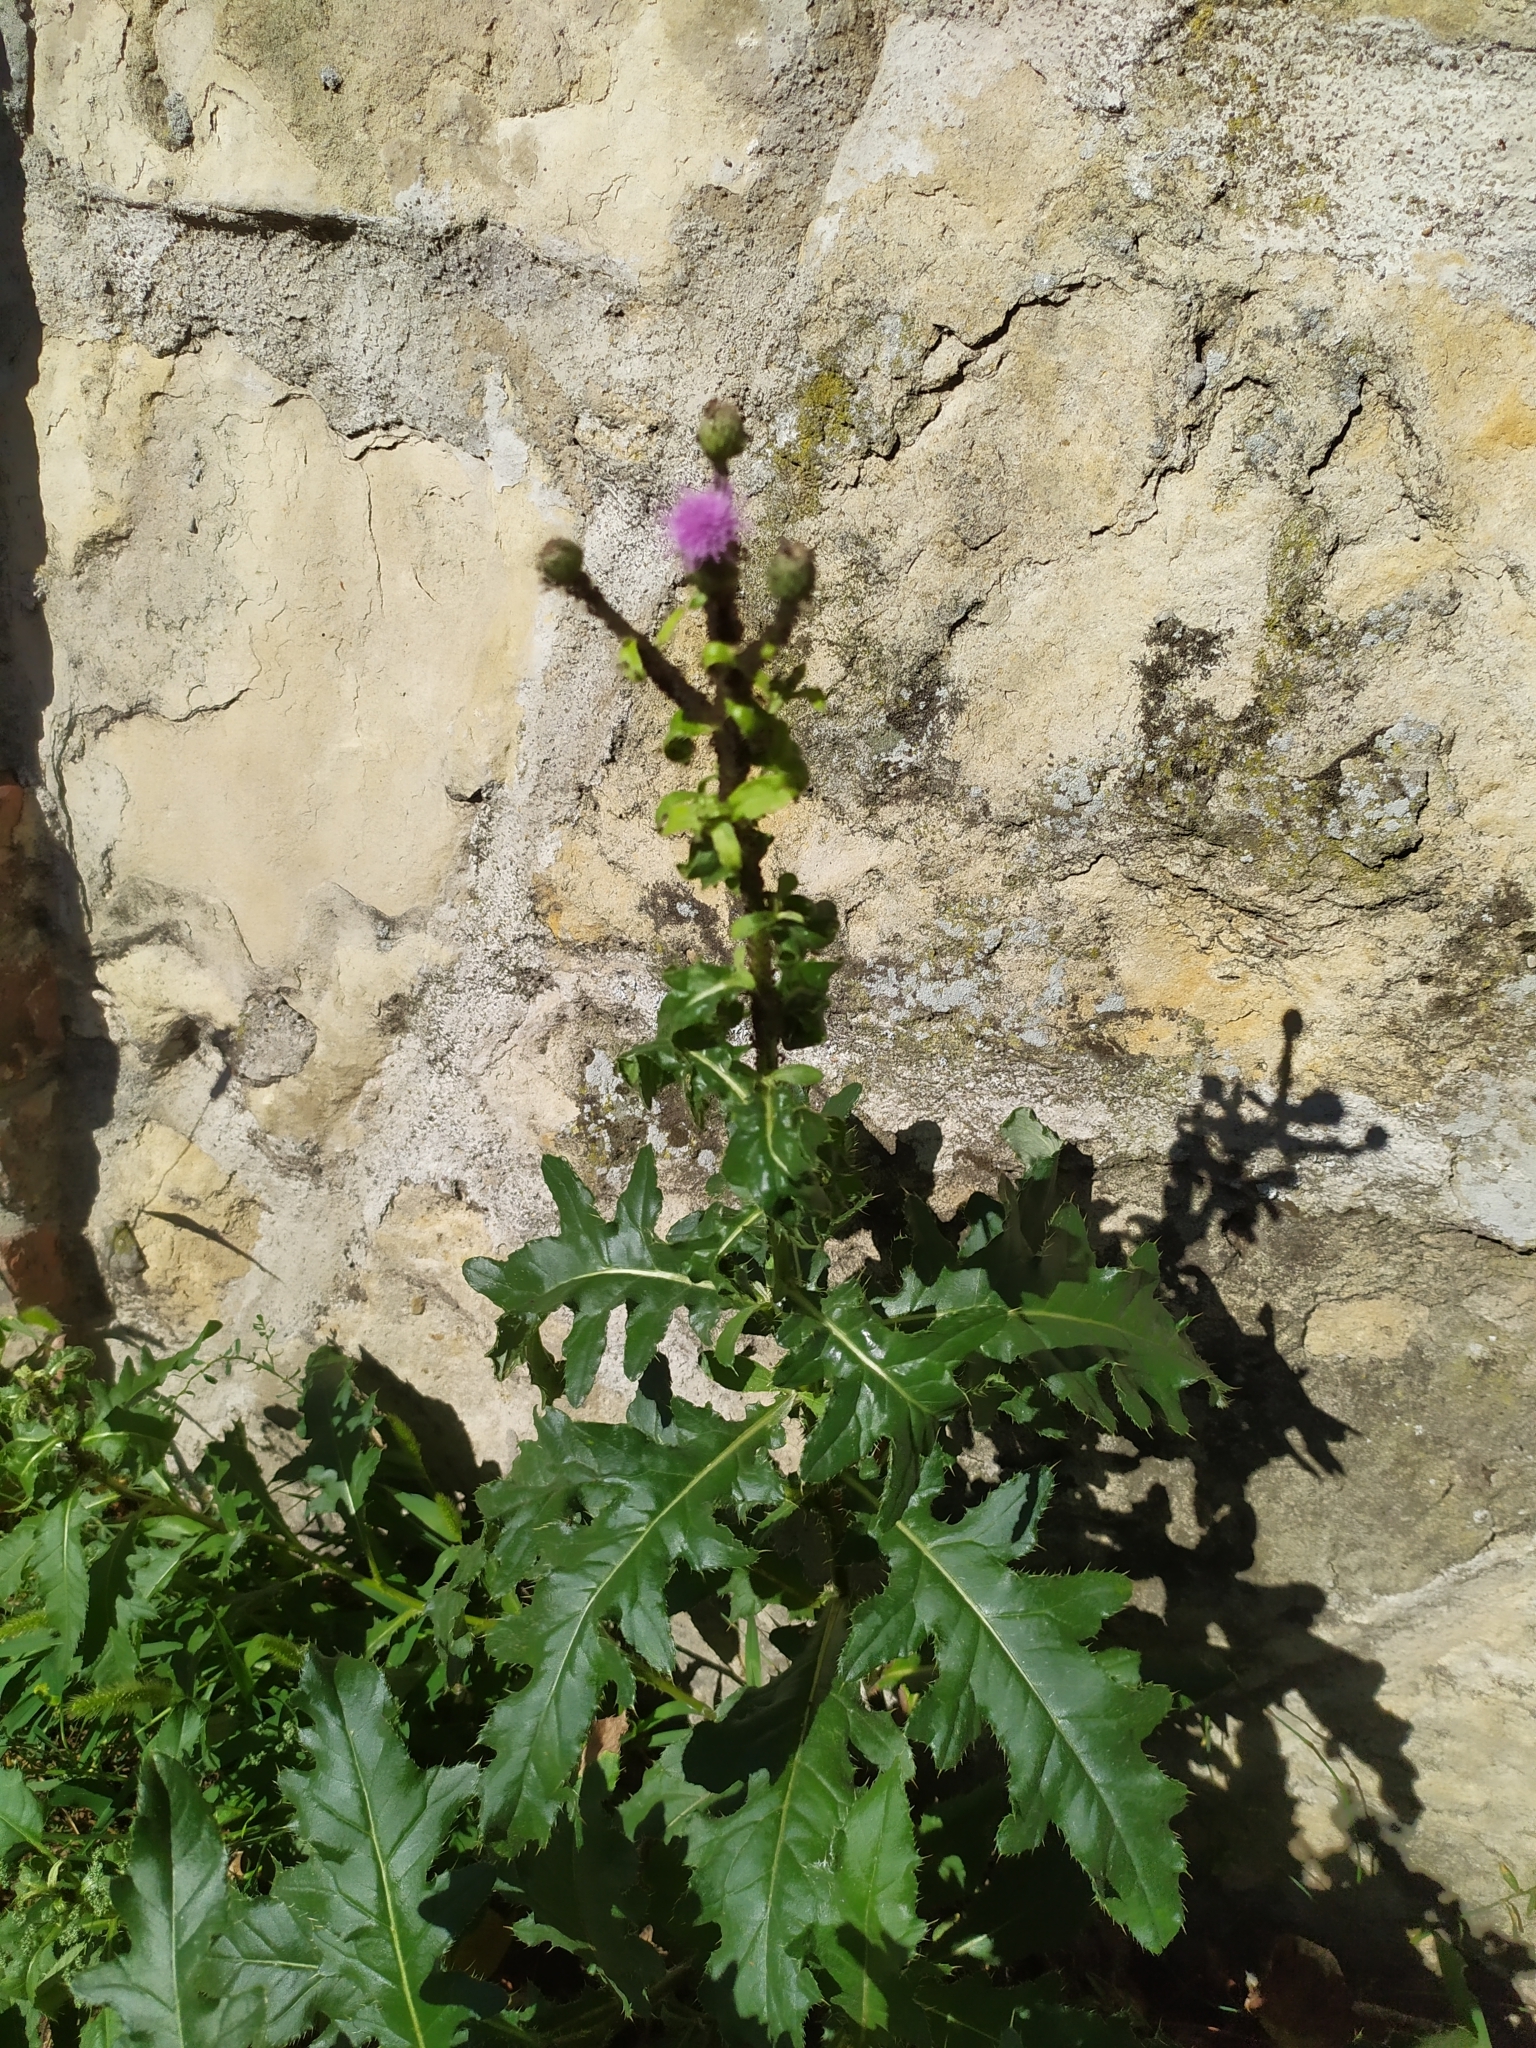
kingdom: Plantae
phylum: Tracheophyta
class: Magnoliopsida
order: Asterales
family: Asteraceae
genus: Cirsium
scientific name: Cirsium arvense
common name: Creeping thistle
